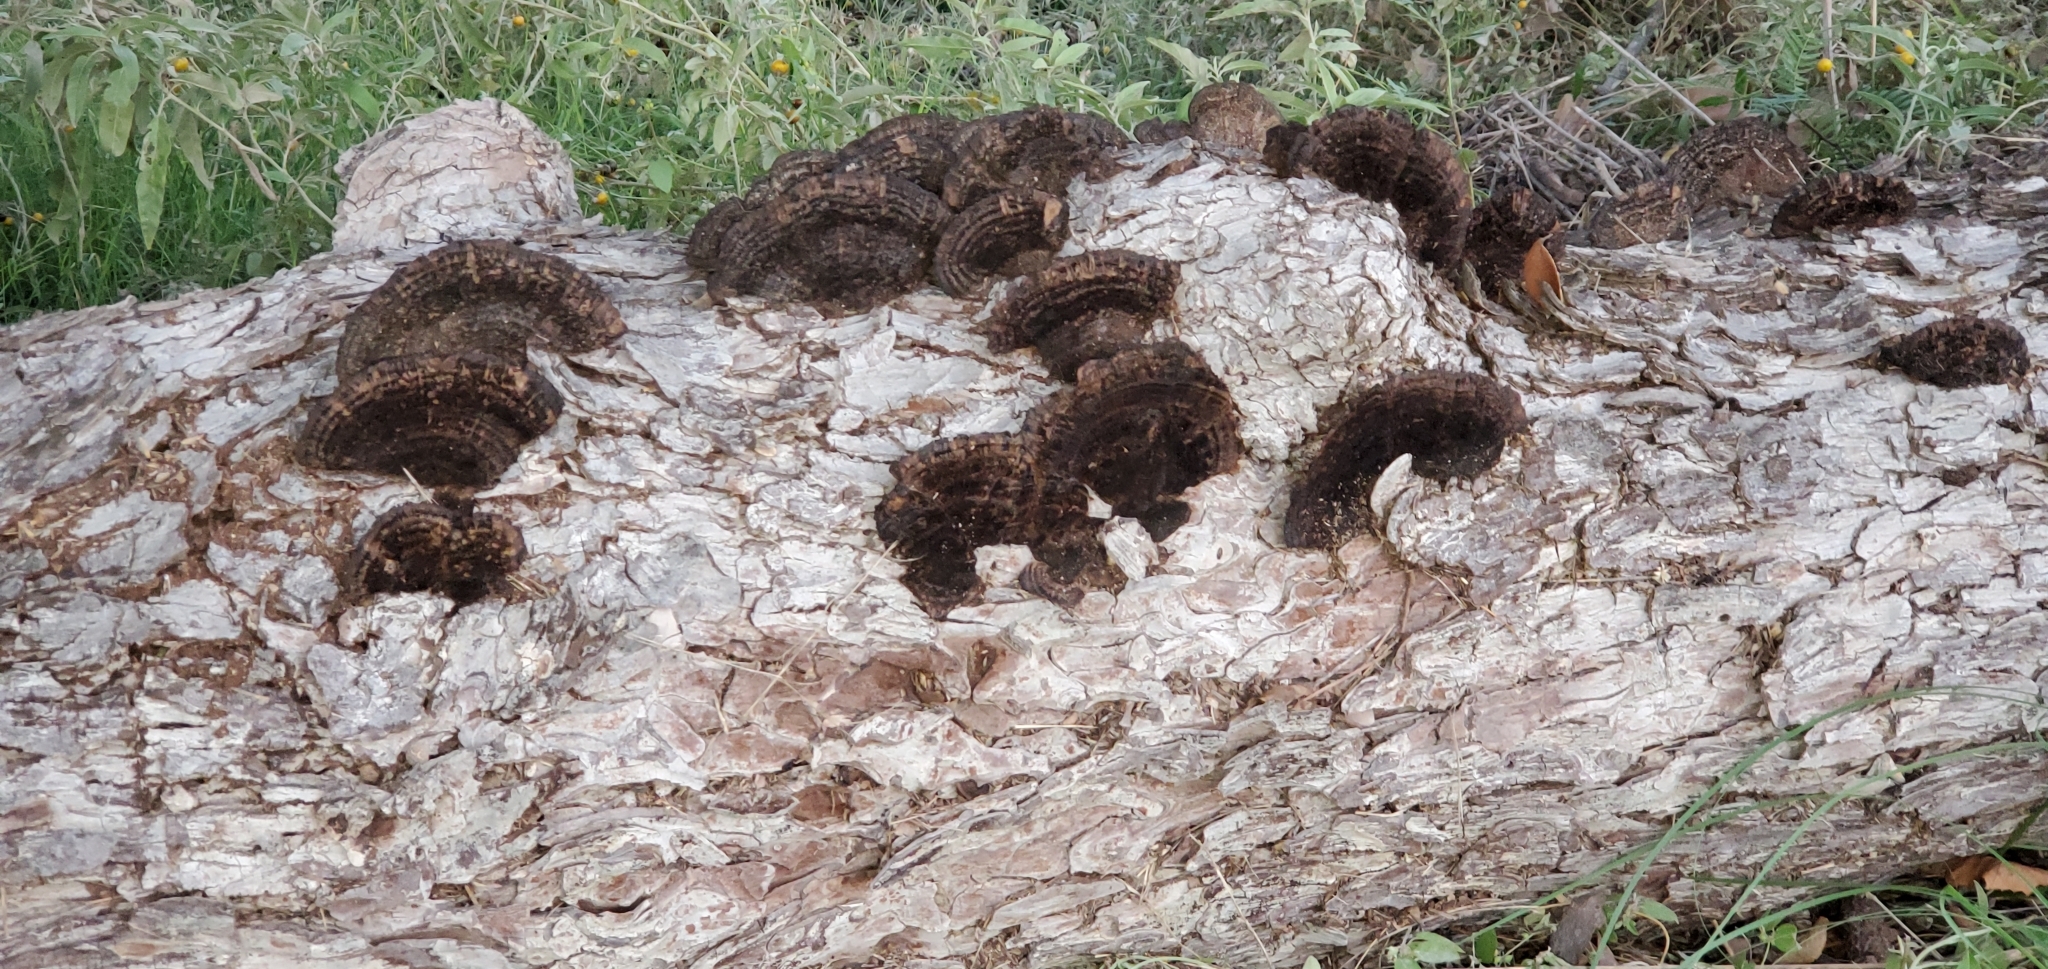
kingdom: Fungi
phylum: Basidiomycota
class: Agaricomycetes
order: Polyporales
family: Cerrenaceae
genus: Cerrena
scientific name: Cerrena hydnoides
